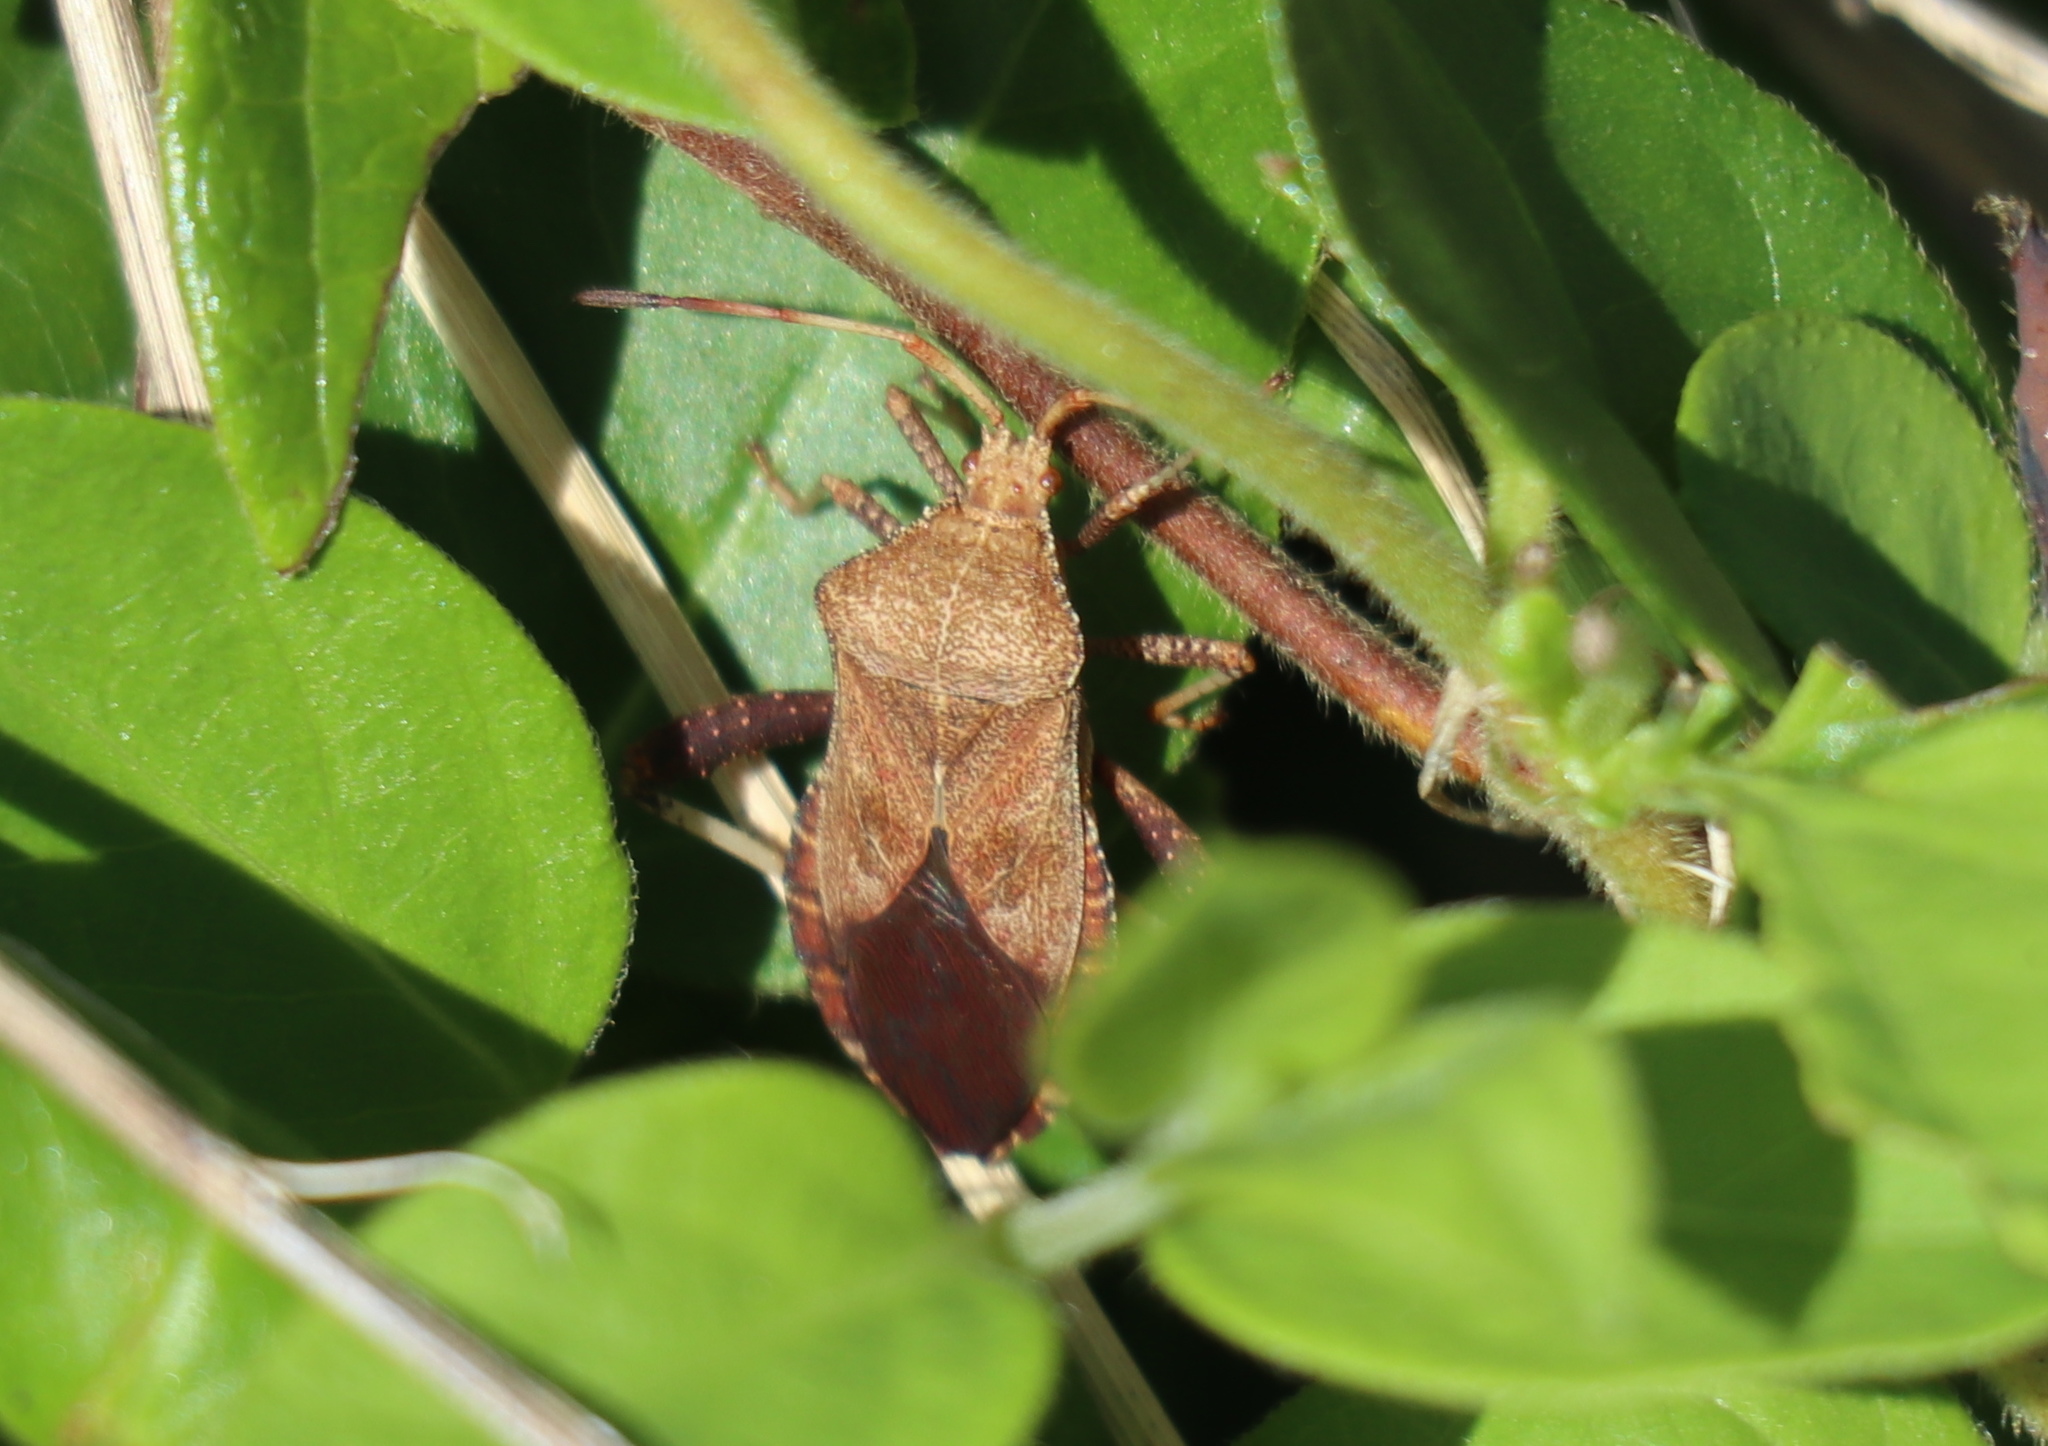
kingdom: Animalia
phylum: Arthropoda
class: Insecta
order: Hemiptera
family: Coreidae
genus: Euthochtha
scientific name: Euthochtha galeator
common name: Helmeted squash bug
